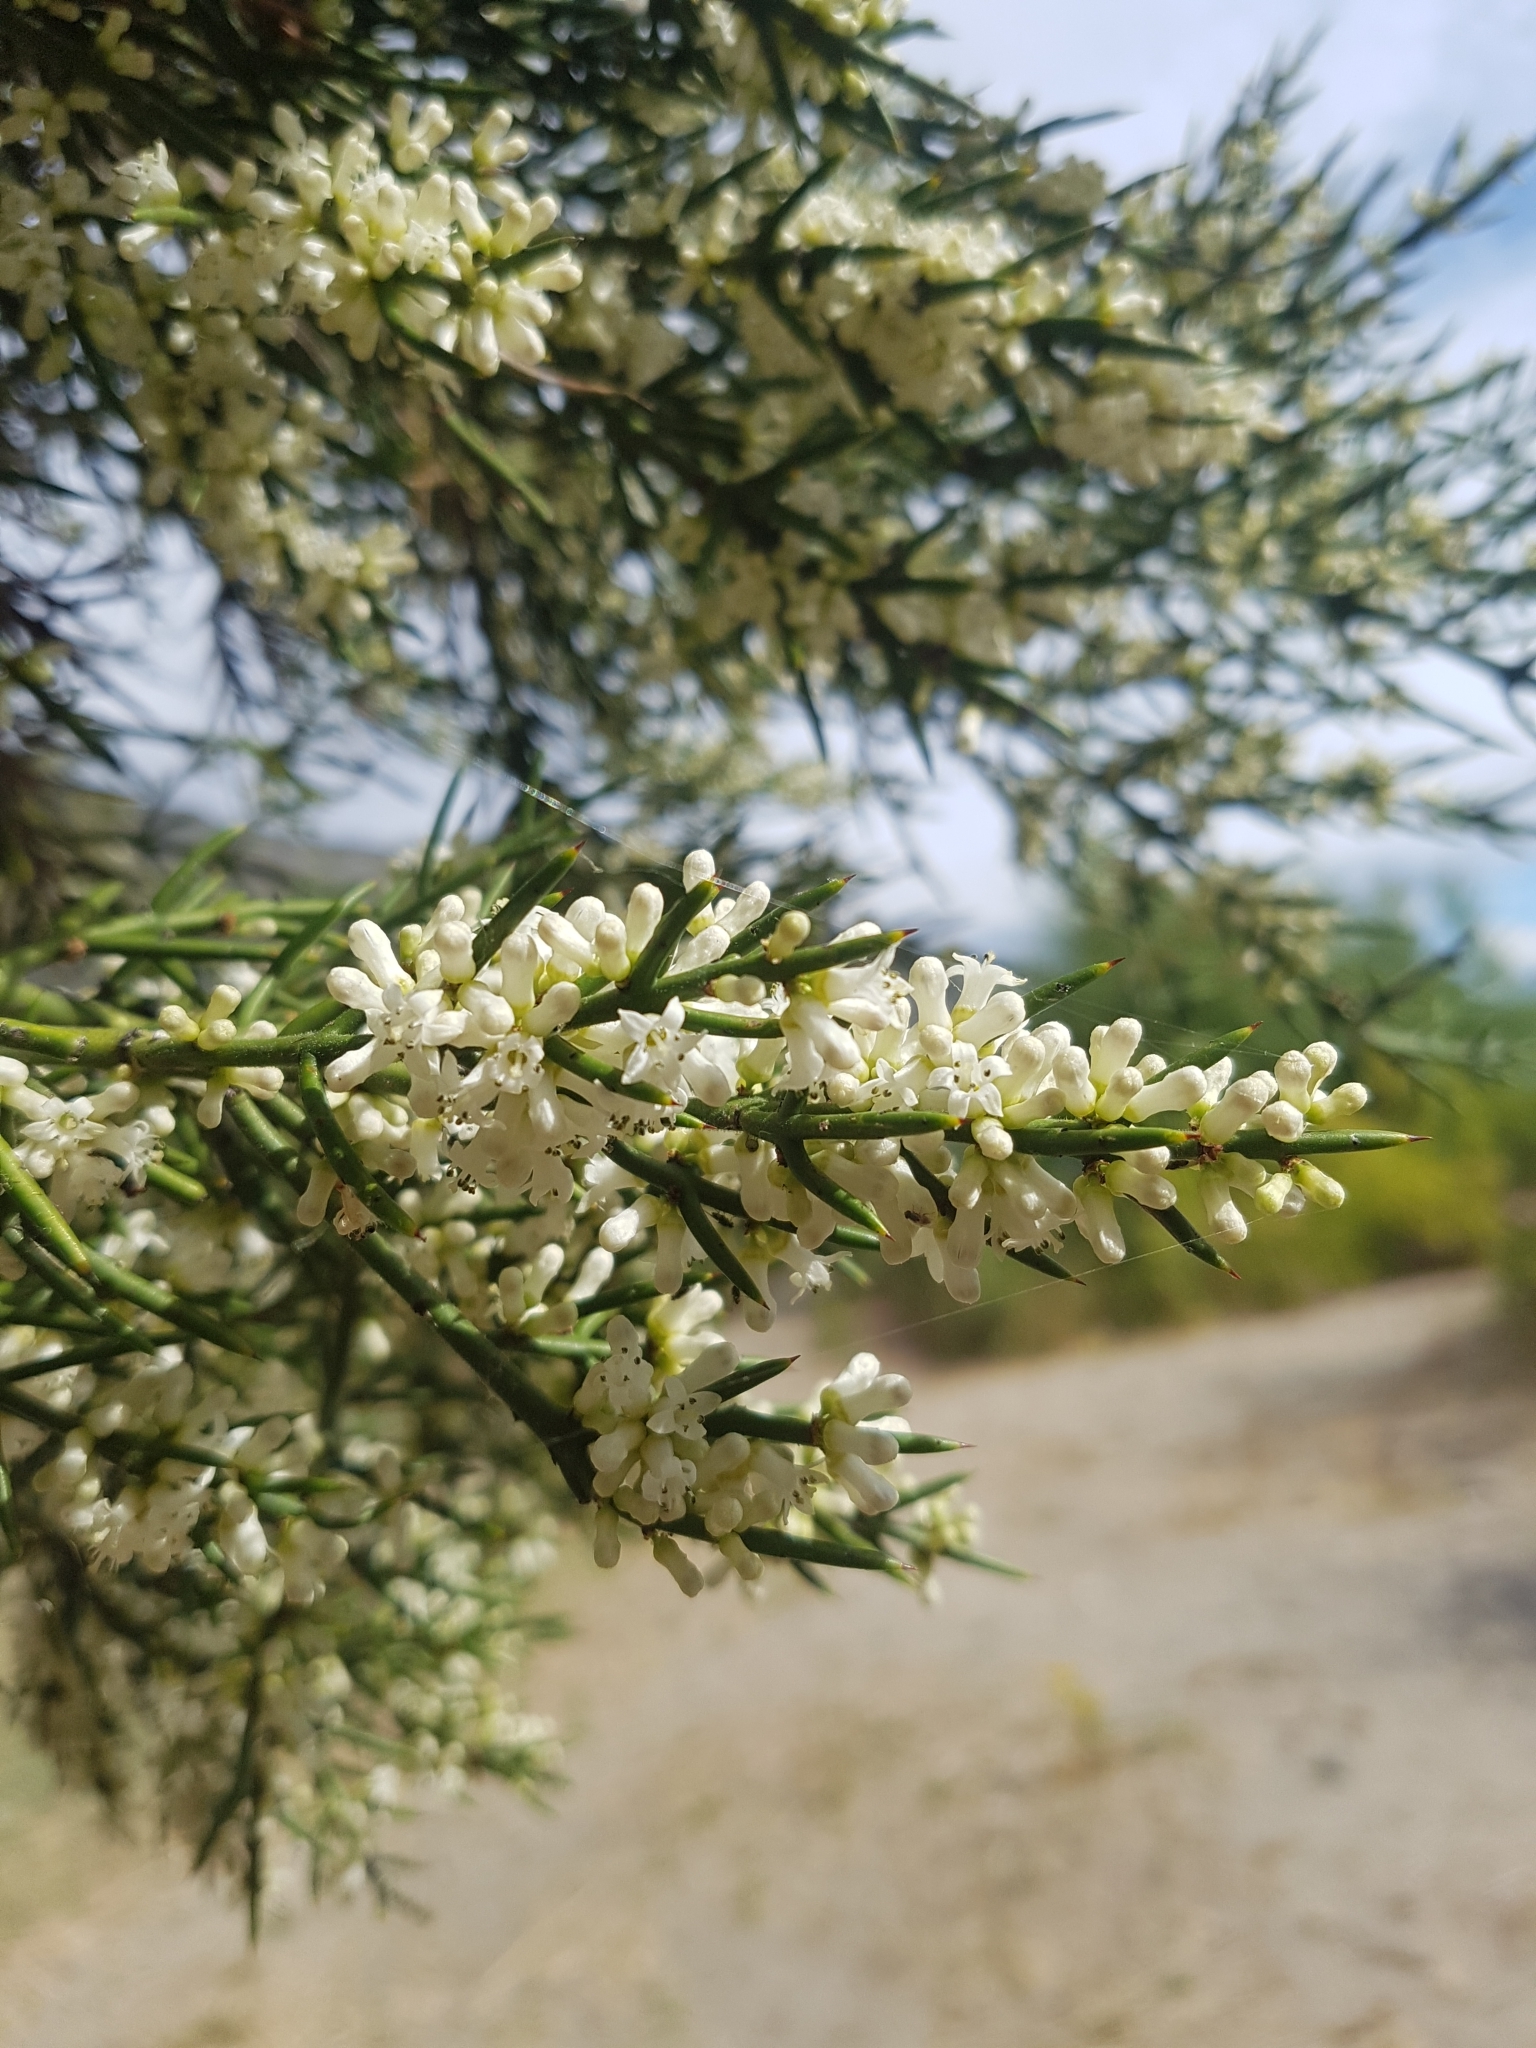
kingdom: Plantae
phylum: Tracheophyta
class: Magnoliopsida
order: Rosales
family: Rhamnaceae
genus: Colletia
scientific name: Colletia hystrix
